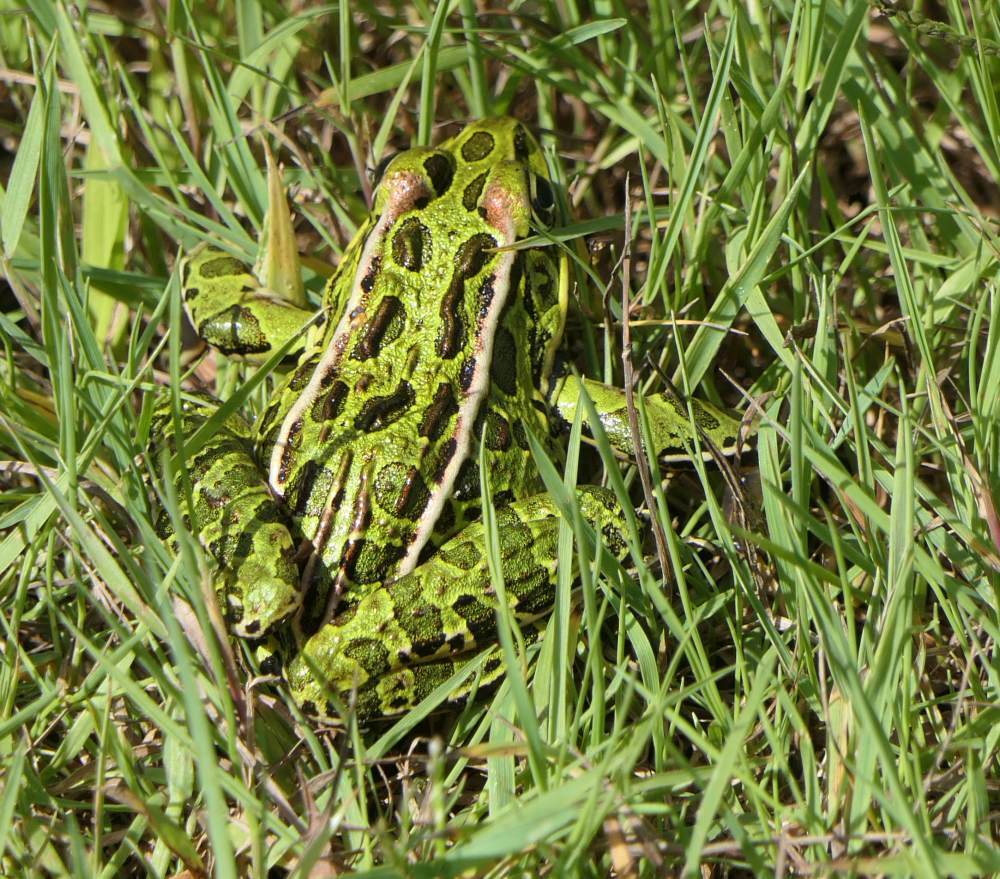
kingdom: Animalia
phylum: Chordata
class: Amphibia
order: Anura
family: Ranidae
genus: Lithobates
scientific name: Lithobates pipiens
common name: Northern leopard frog
